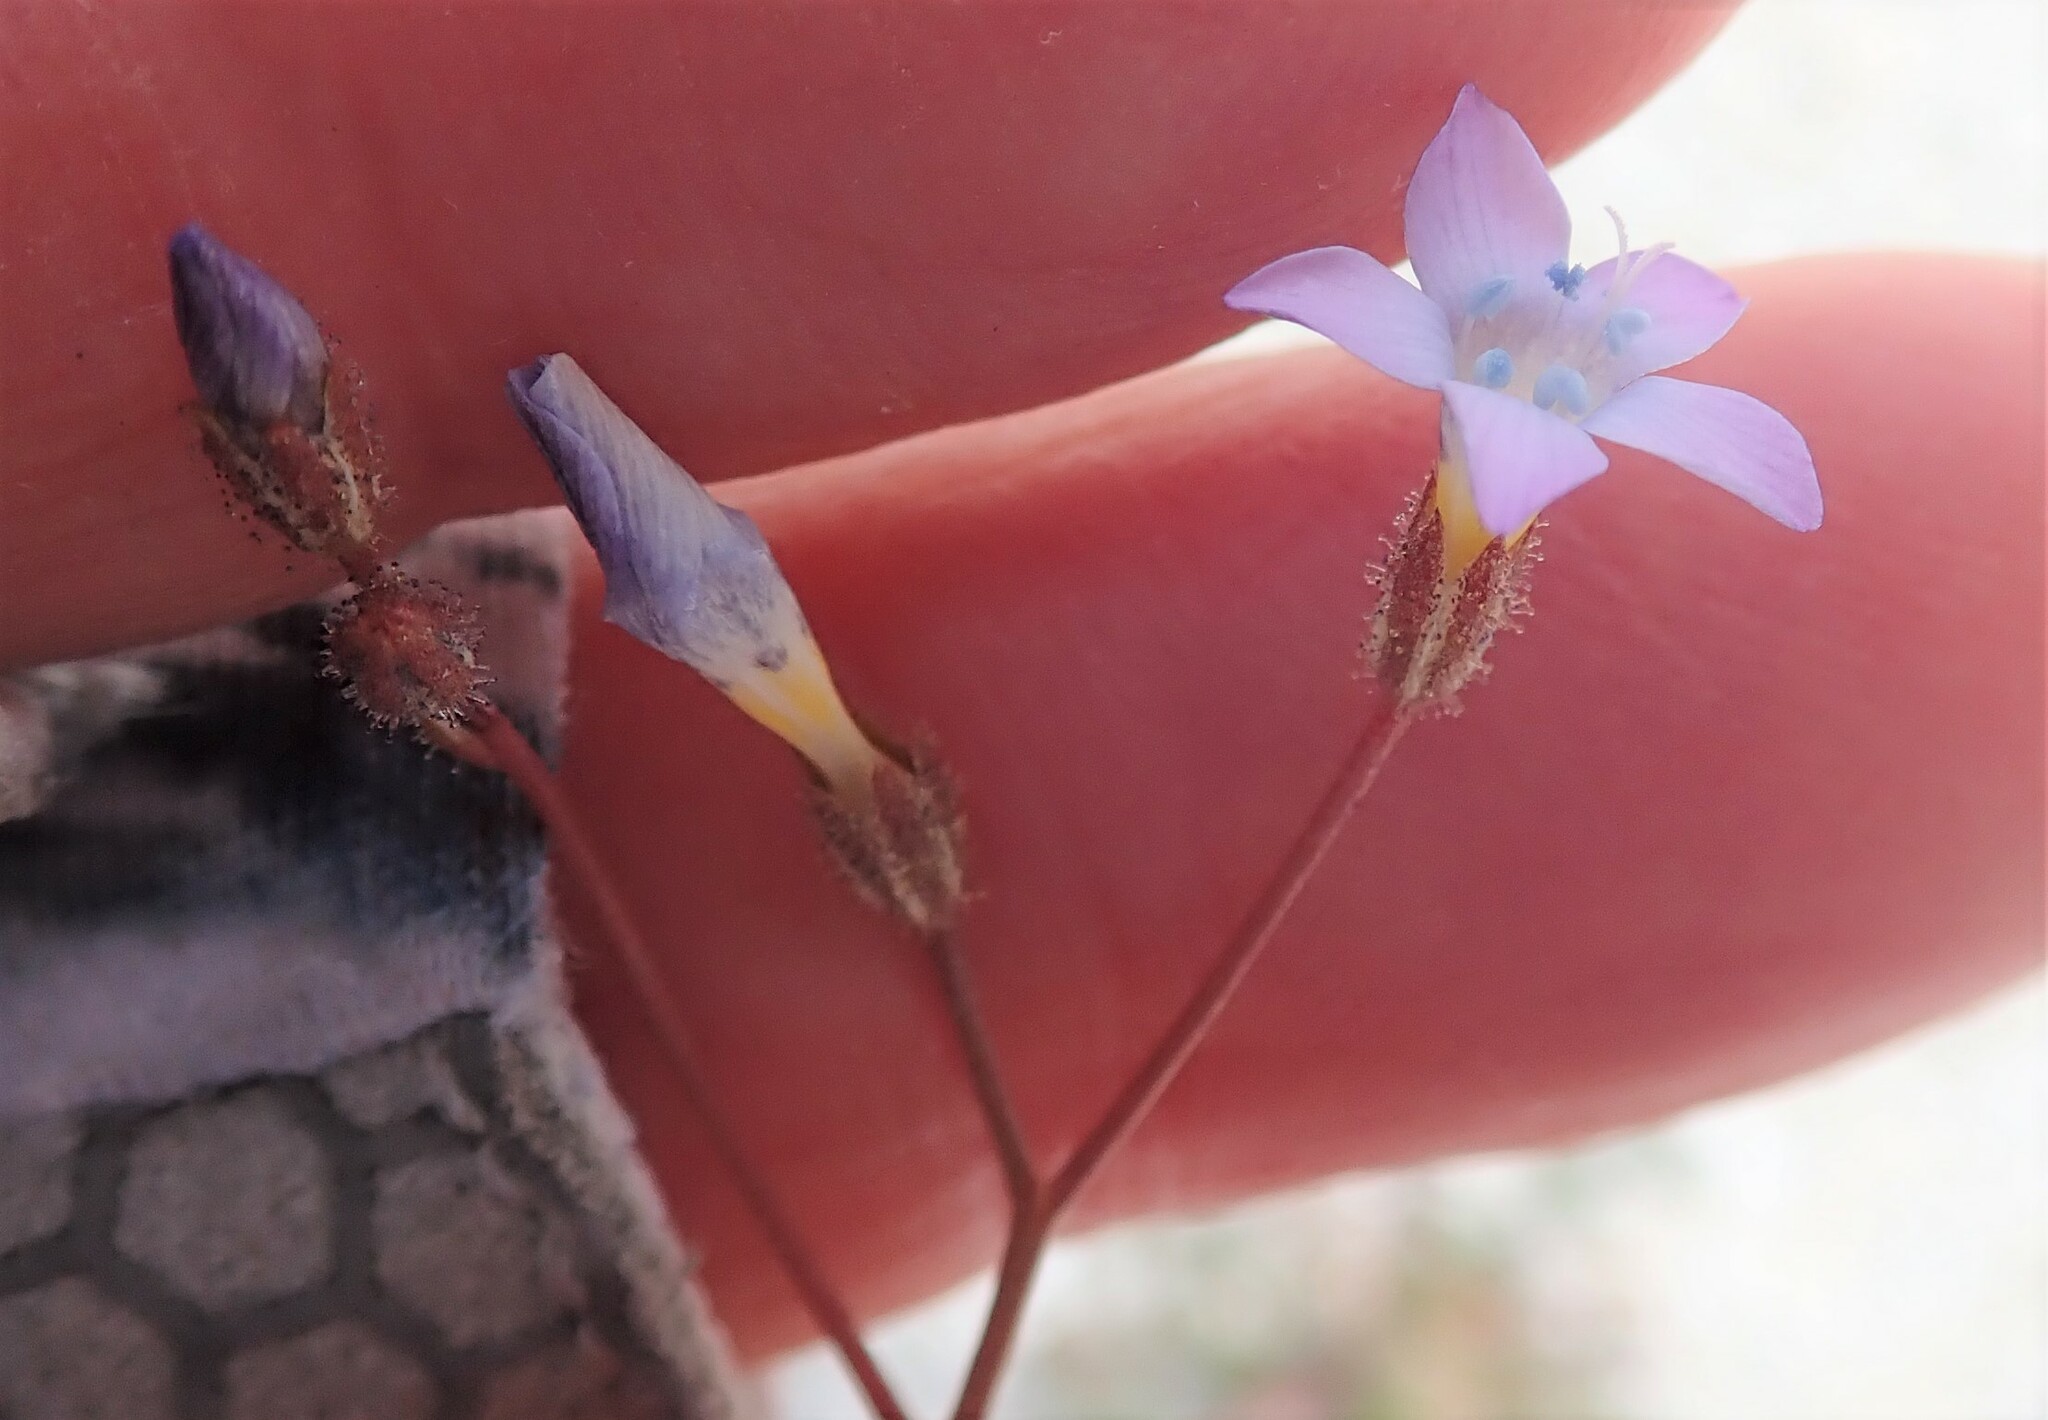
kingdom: Plantae
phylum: Tracheophyta
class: Magnoliopsida
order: Ericales
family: Polemoniaceae
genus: Gilia
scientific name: Gilia stellata
